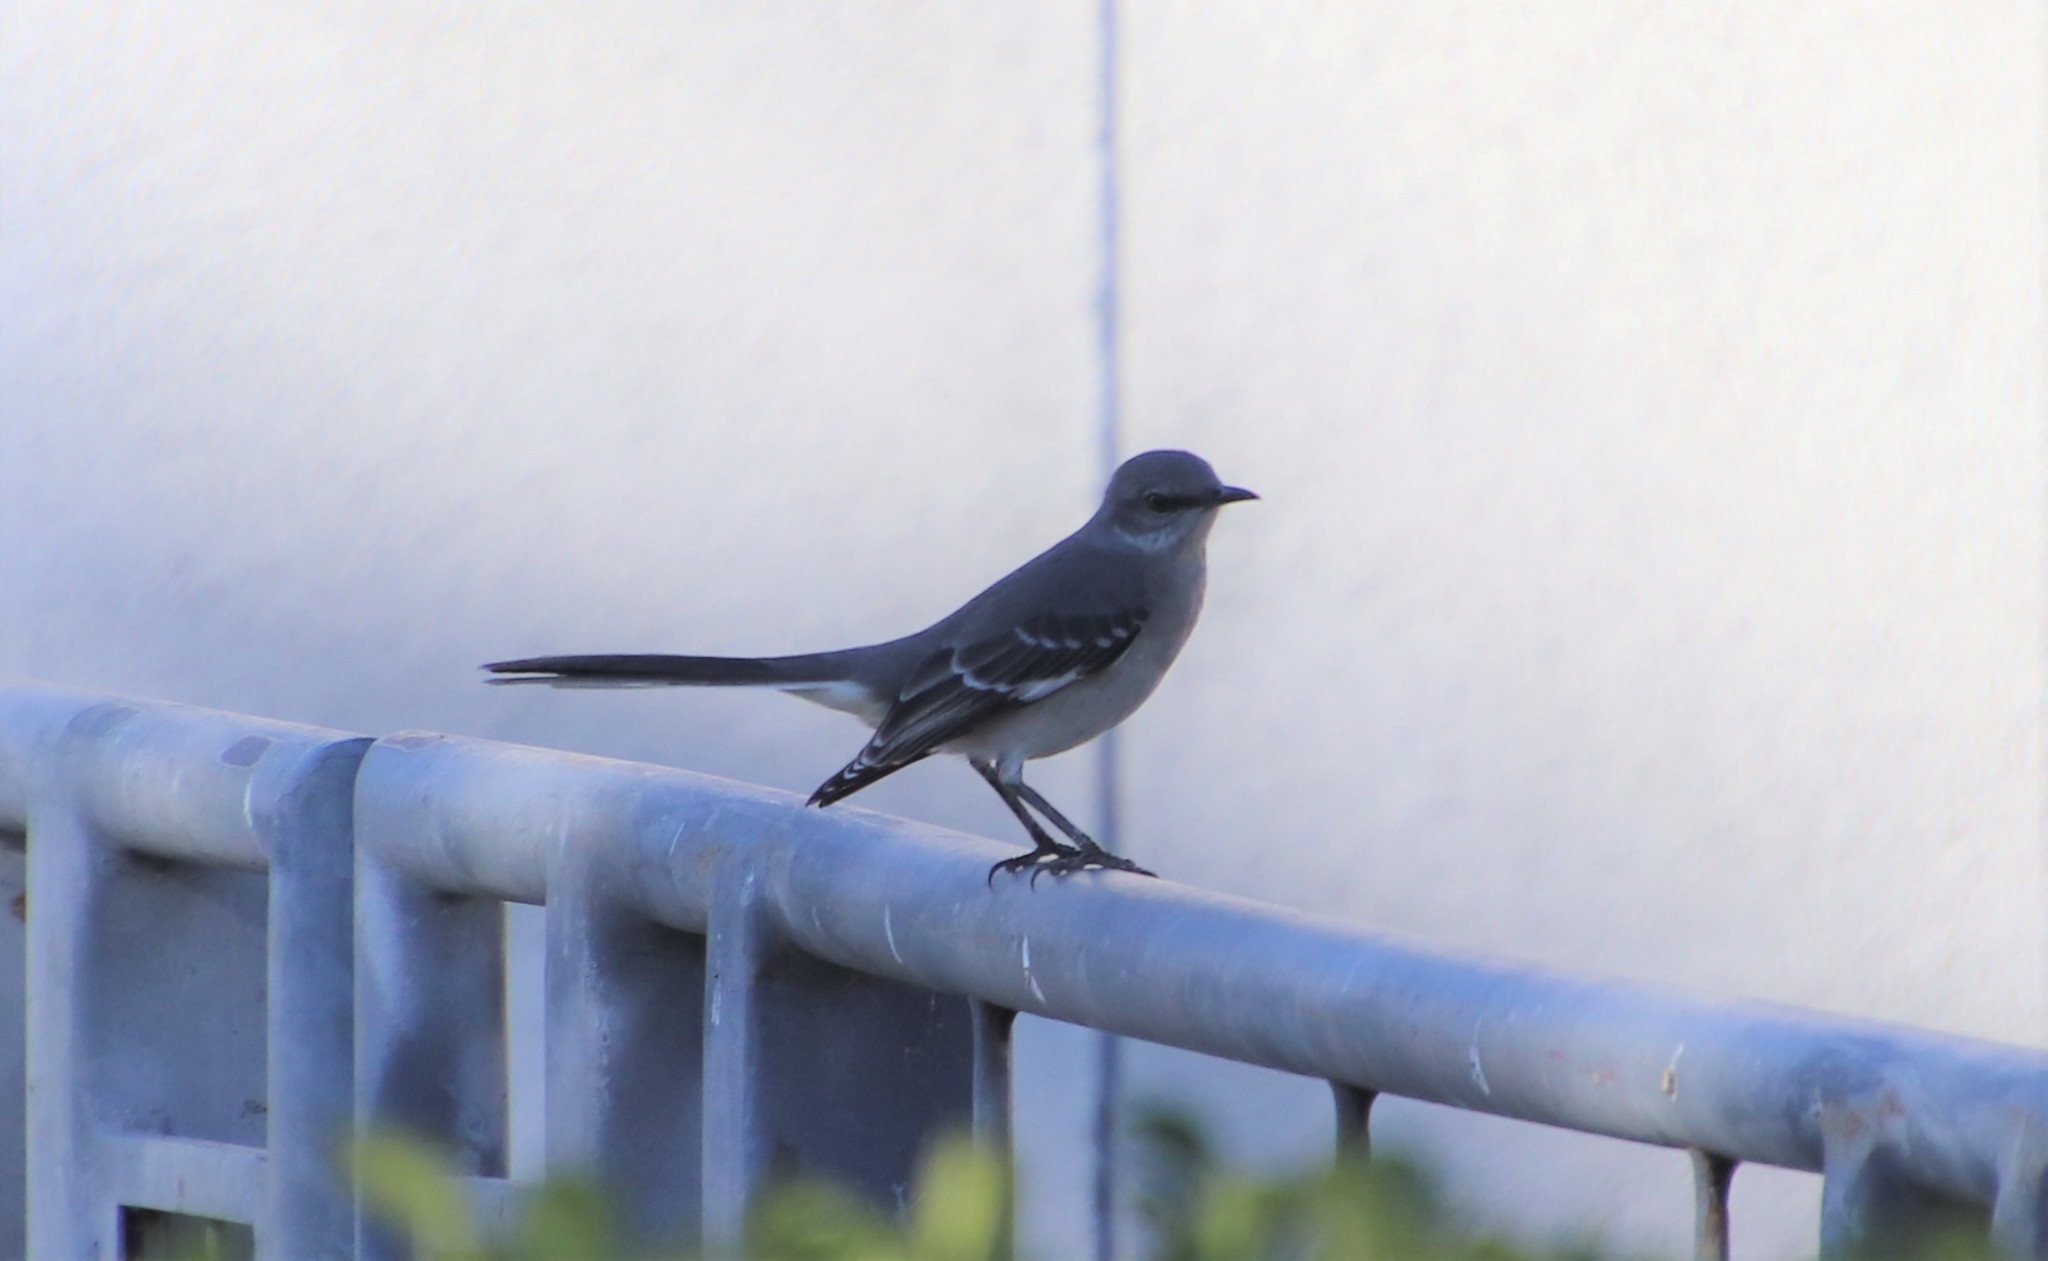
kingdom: Animalia
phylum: Chordata
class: Aves
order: Passeriformes
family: Mimidae
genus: Mimus
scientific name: Mimus polyglottos
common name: Northern mockingbird
